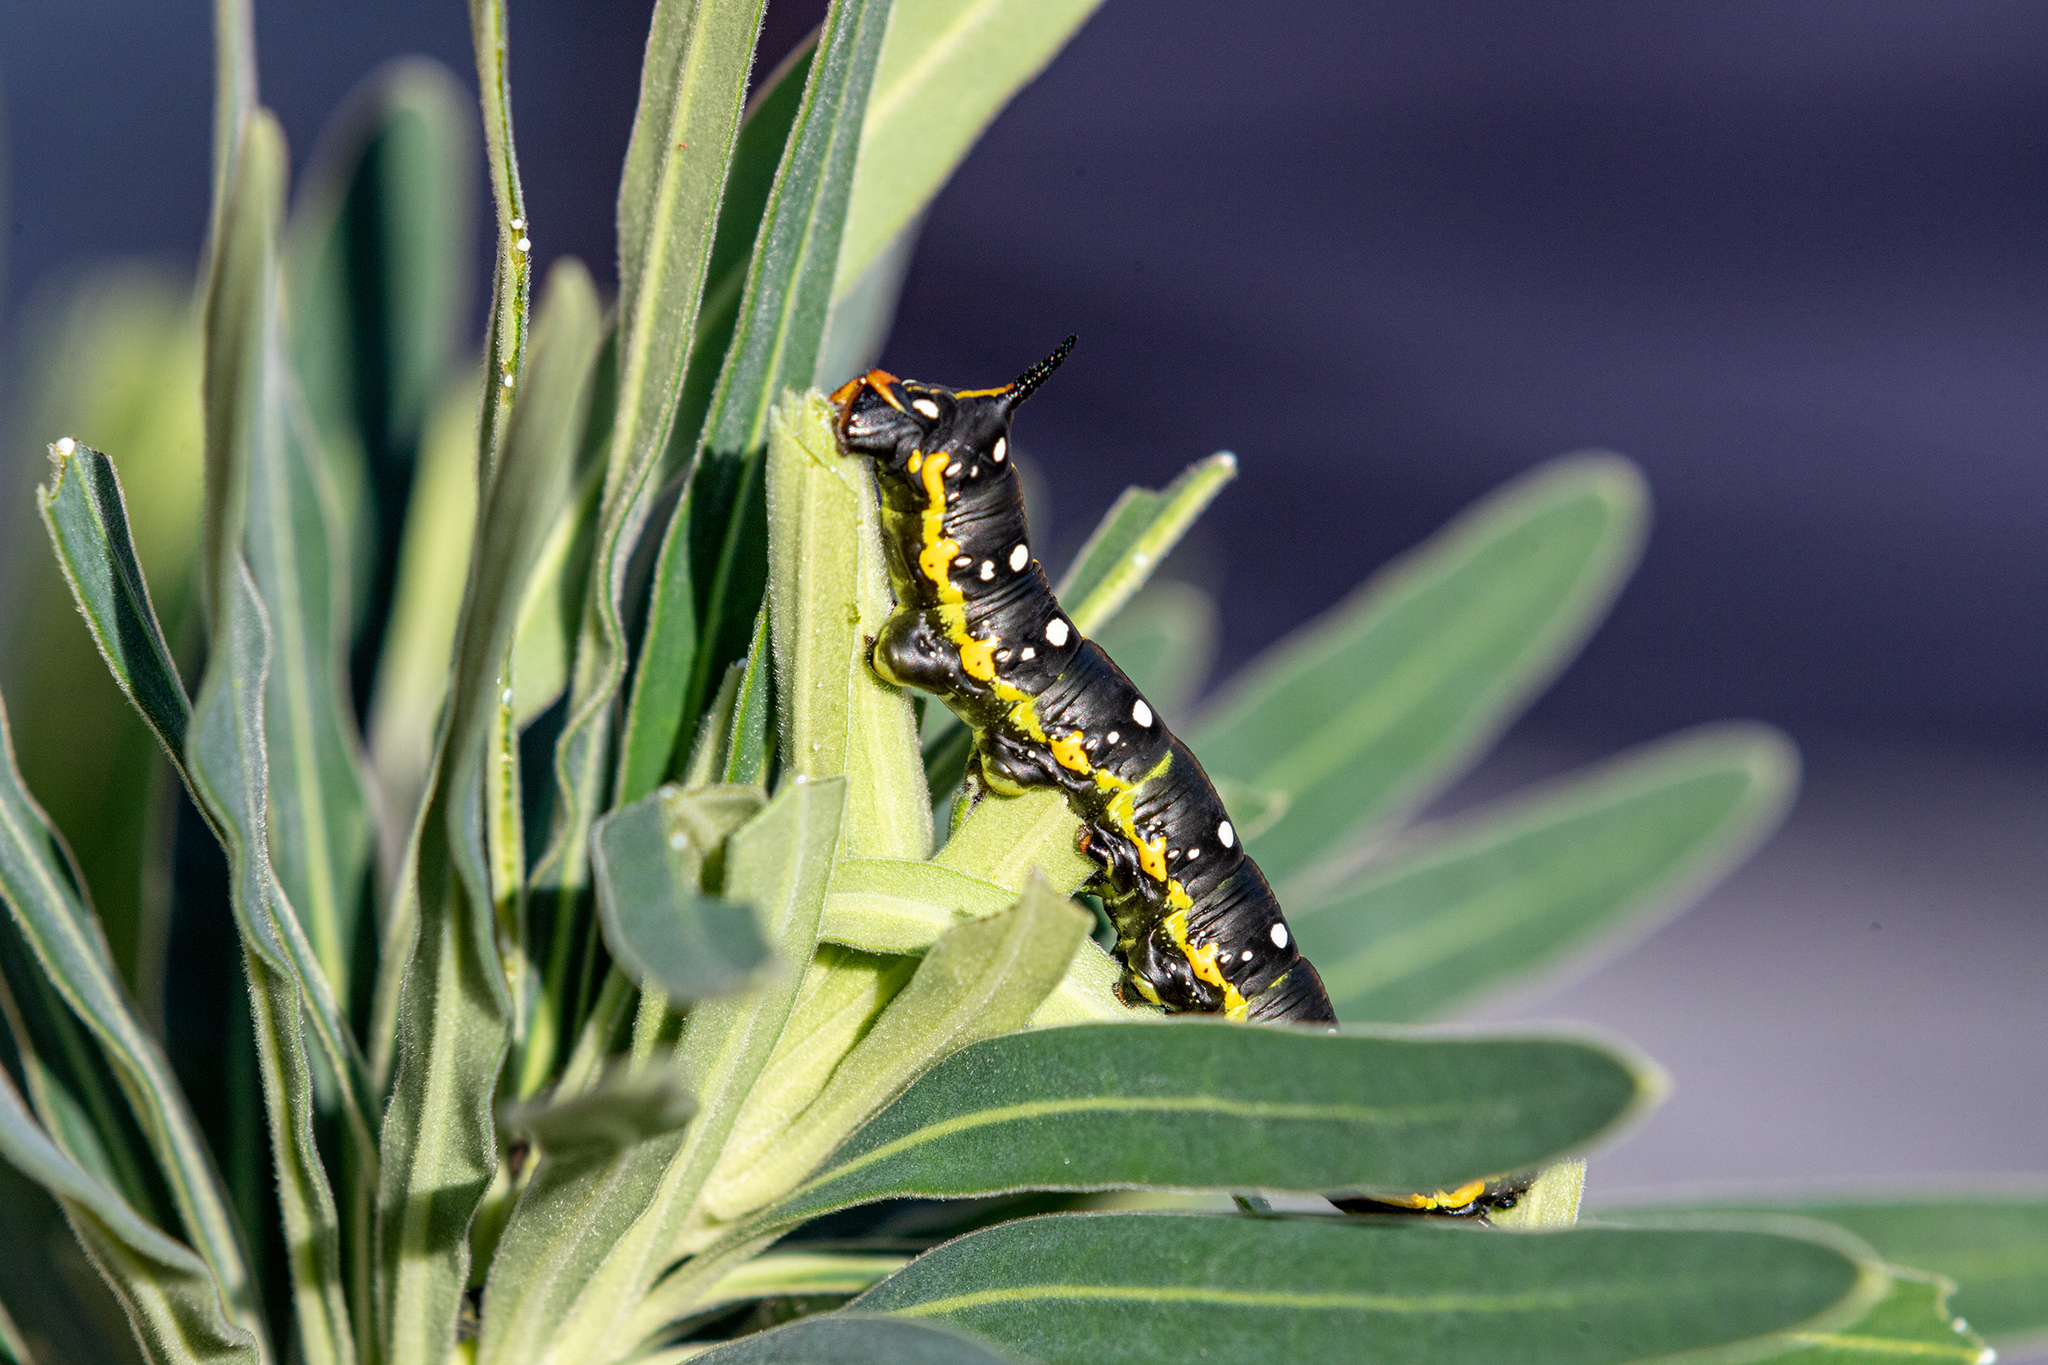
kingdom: Animalia
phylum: Arthropoda
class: Insecta
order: Lepidoptera
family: Sphingidae
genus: Hyles
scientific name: Hyles euphorbiae
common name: Spurge hawk-moth
